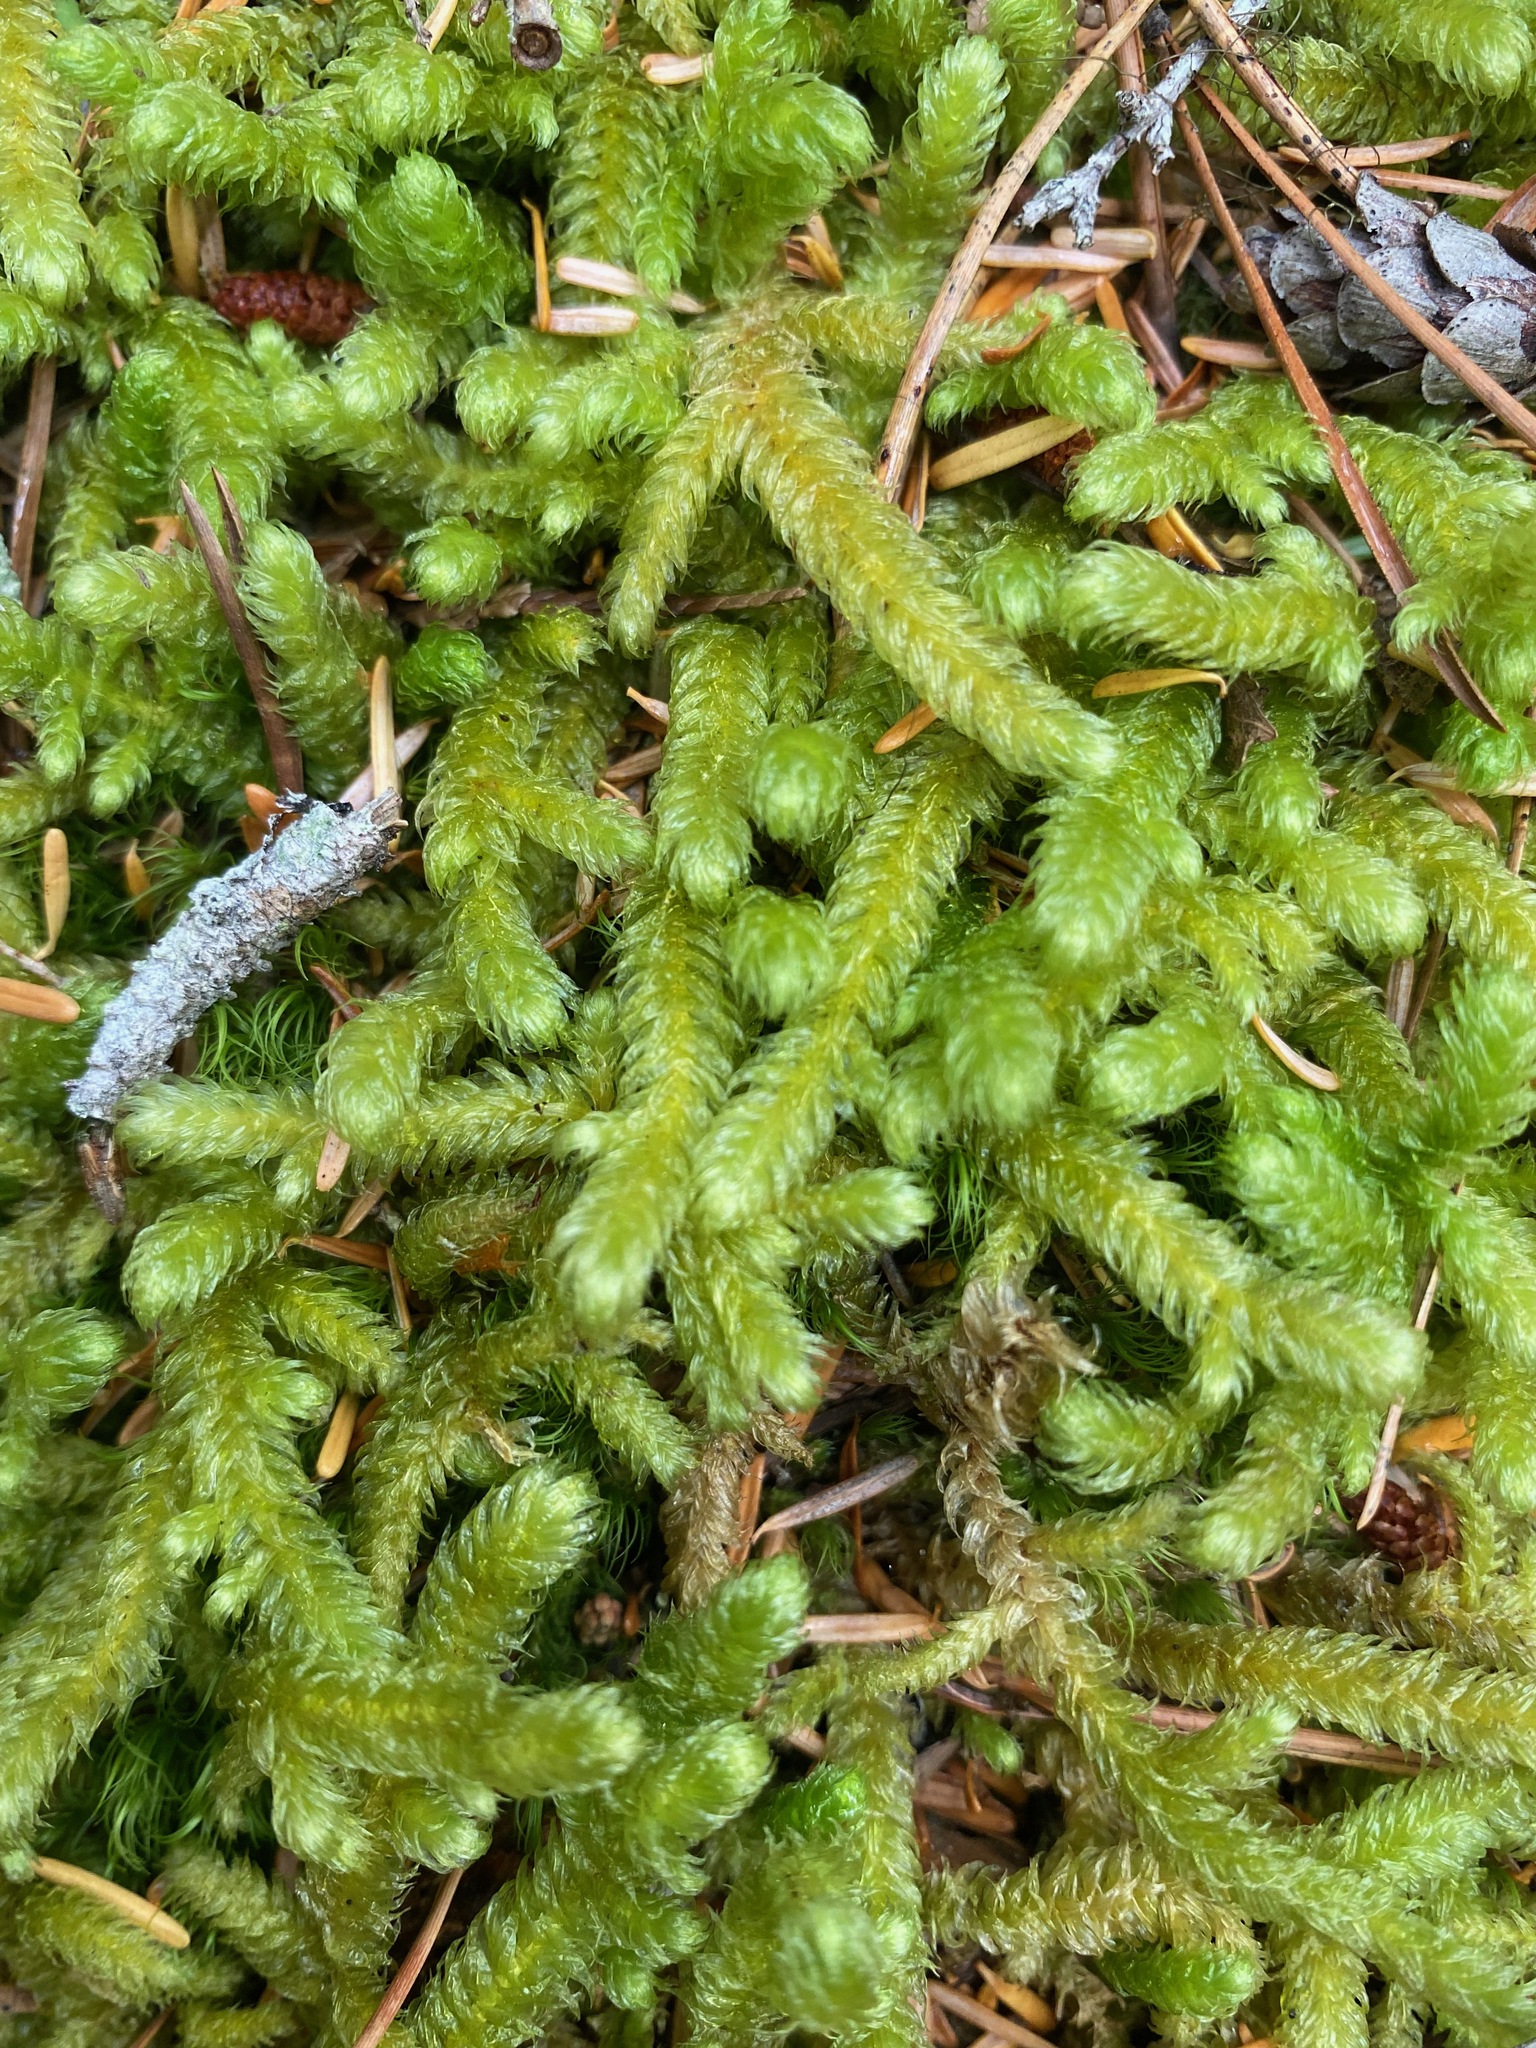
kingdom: Plantae
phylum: Bryophyta
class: Bryopsida
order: Hypnales
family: Hylocomiaceae
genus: Rhytidiopsis
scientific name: Rhytidiopsis robusta
